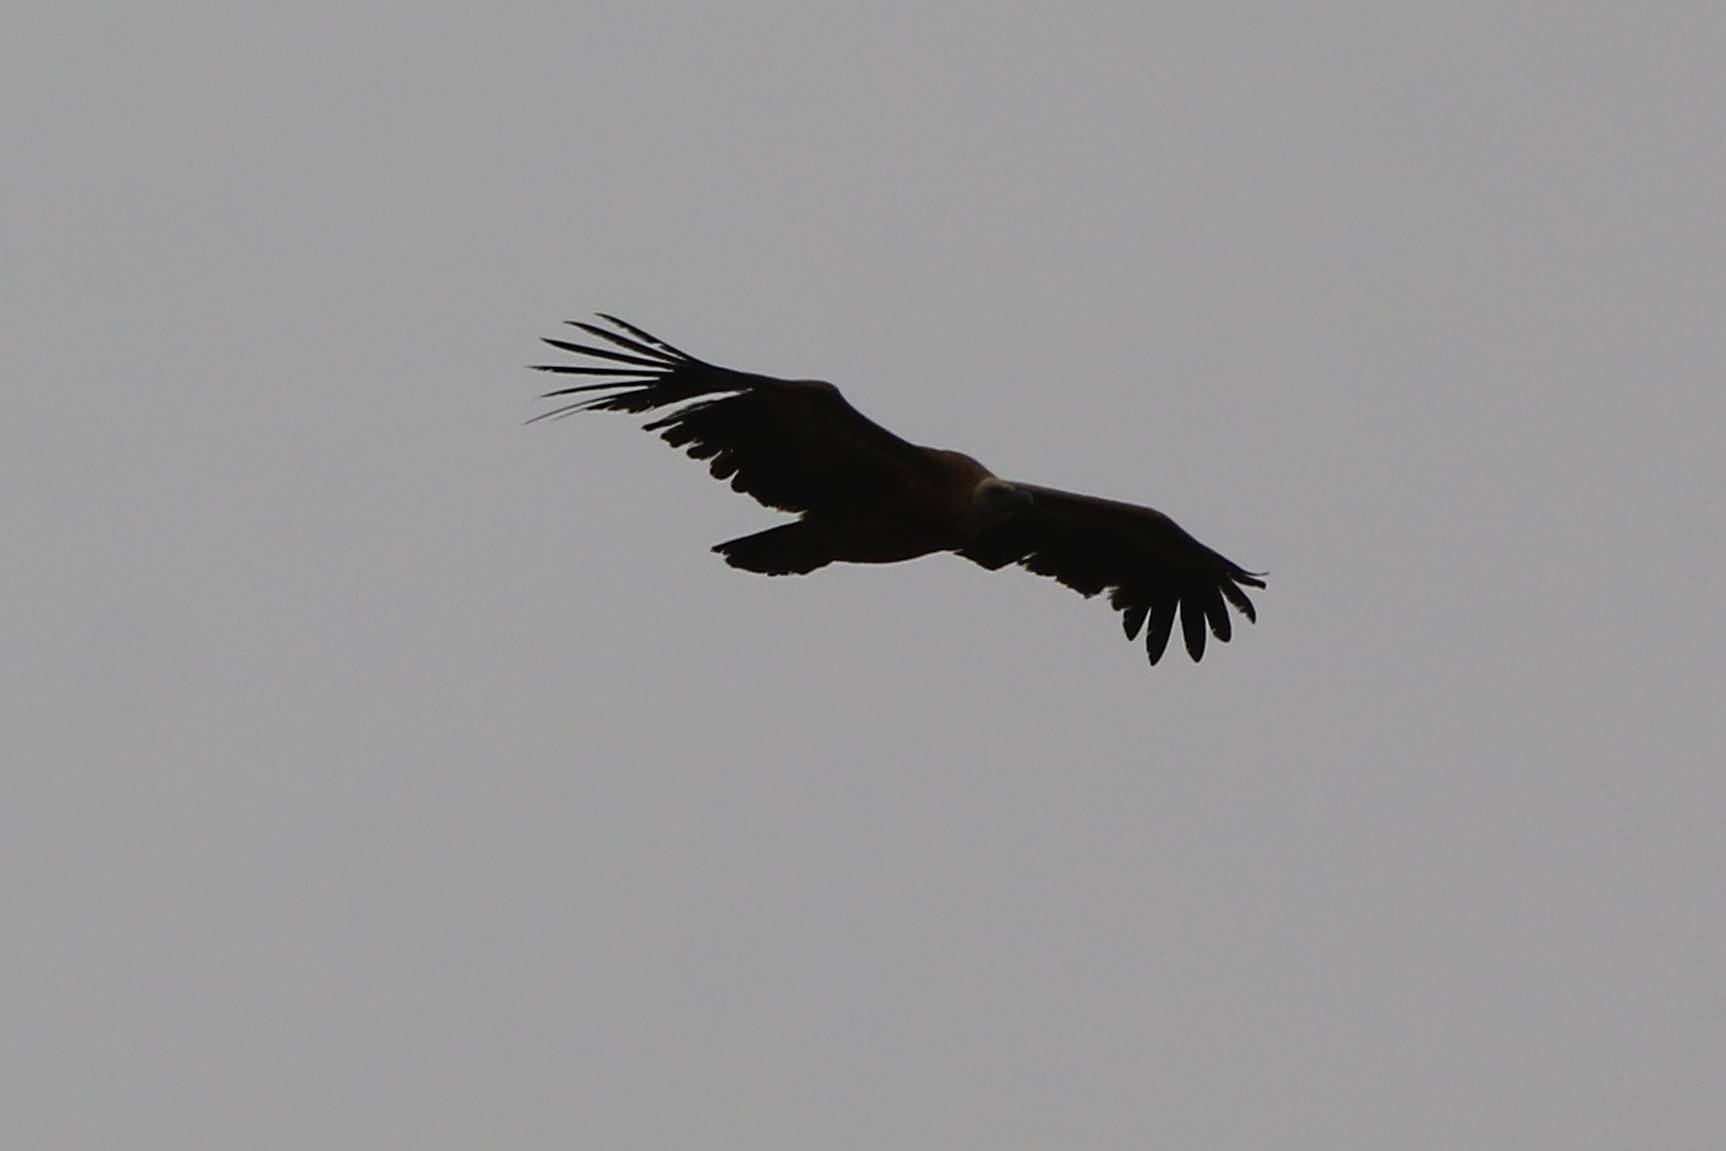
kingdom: Animalia
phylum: Chordata
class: Aves
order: Accipitriformes
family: Accipitridae
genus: Gyps
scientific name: Gyps fulvus
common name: Griffon vulture
